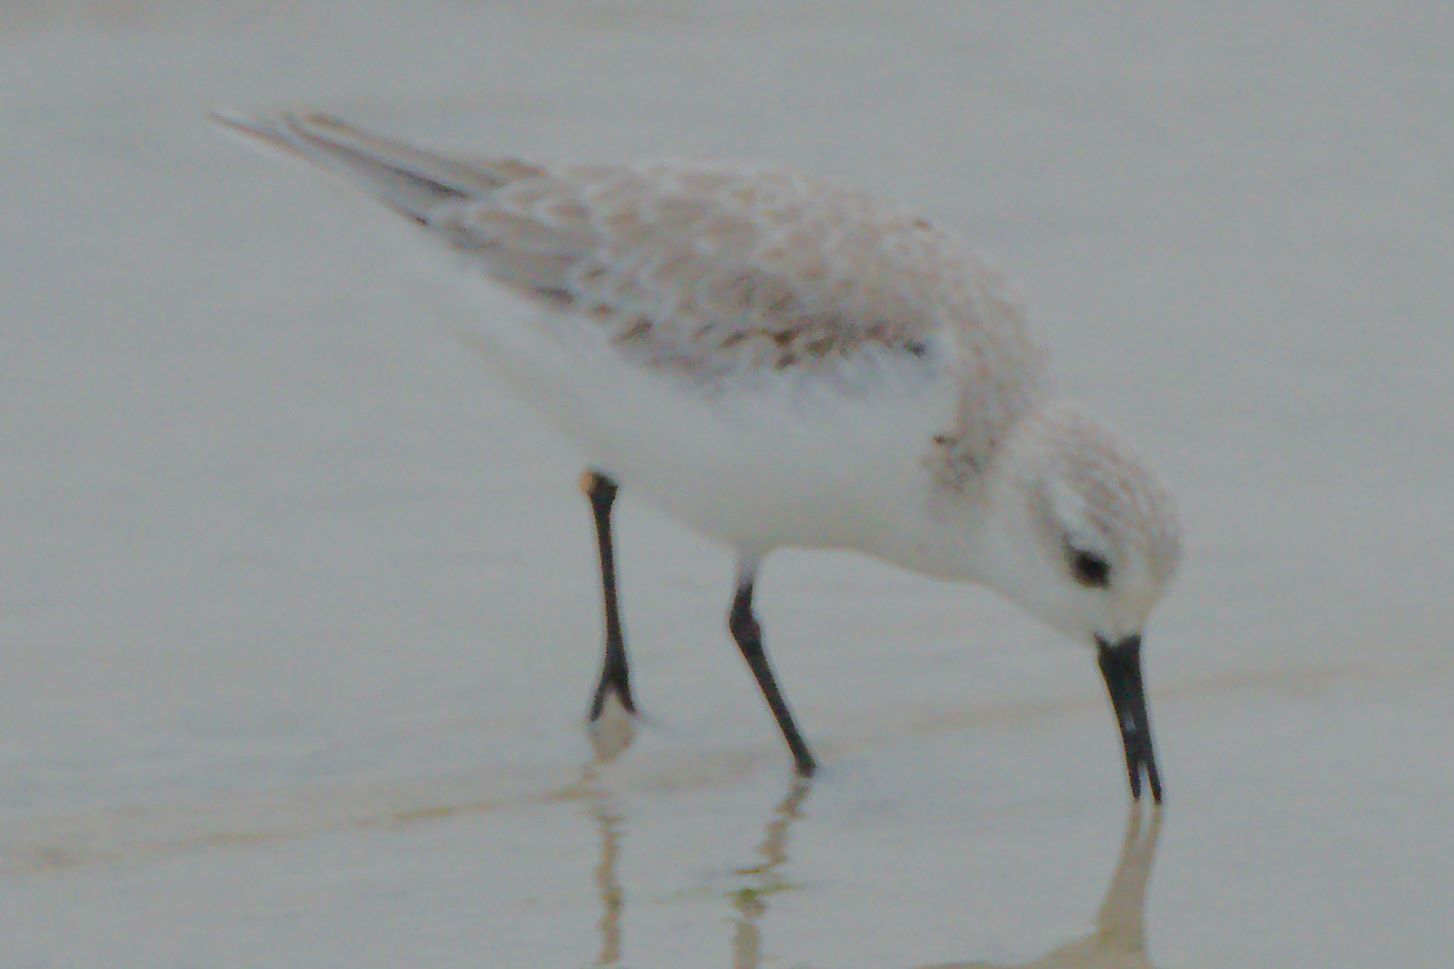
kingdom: Animalia
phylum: Chordata
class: Aves
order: Charadriiformes
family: Scolopacidae
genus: Calidris
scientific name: Calidris alba
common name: Sanderling
